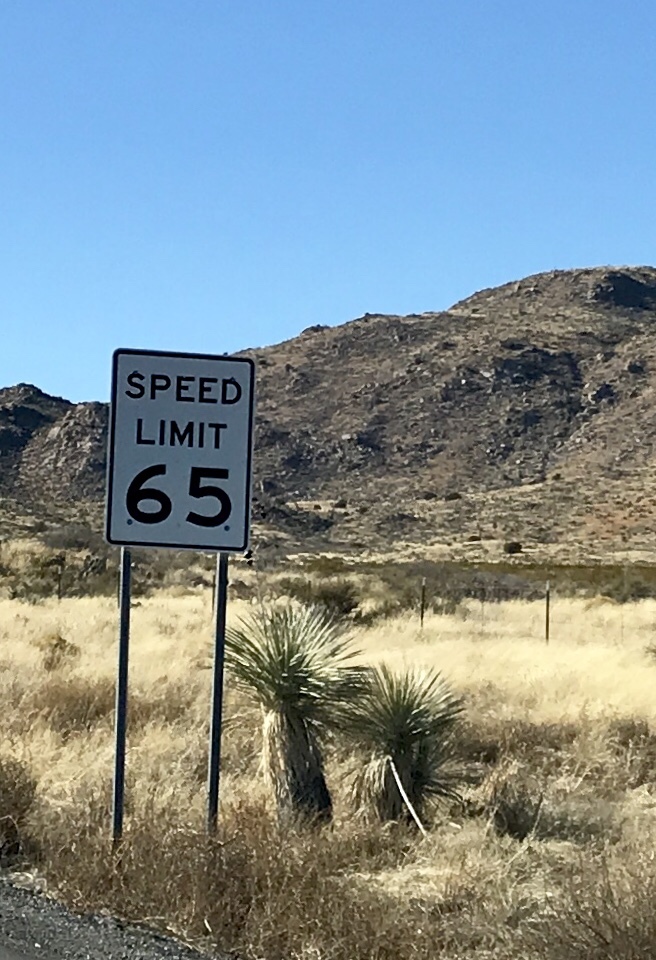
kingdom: Plantae
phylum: Tracheophyta
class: Liliopsida
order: Asparagales
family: Asparagaceae
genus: Yucca
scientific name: Yucca elata
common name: Palmella
